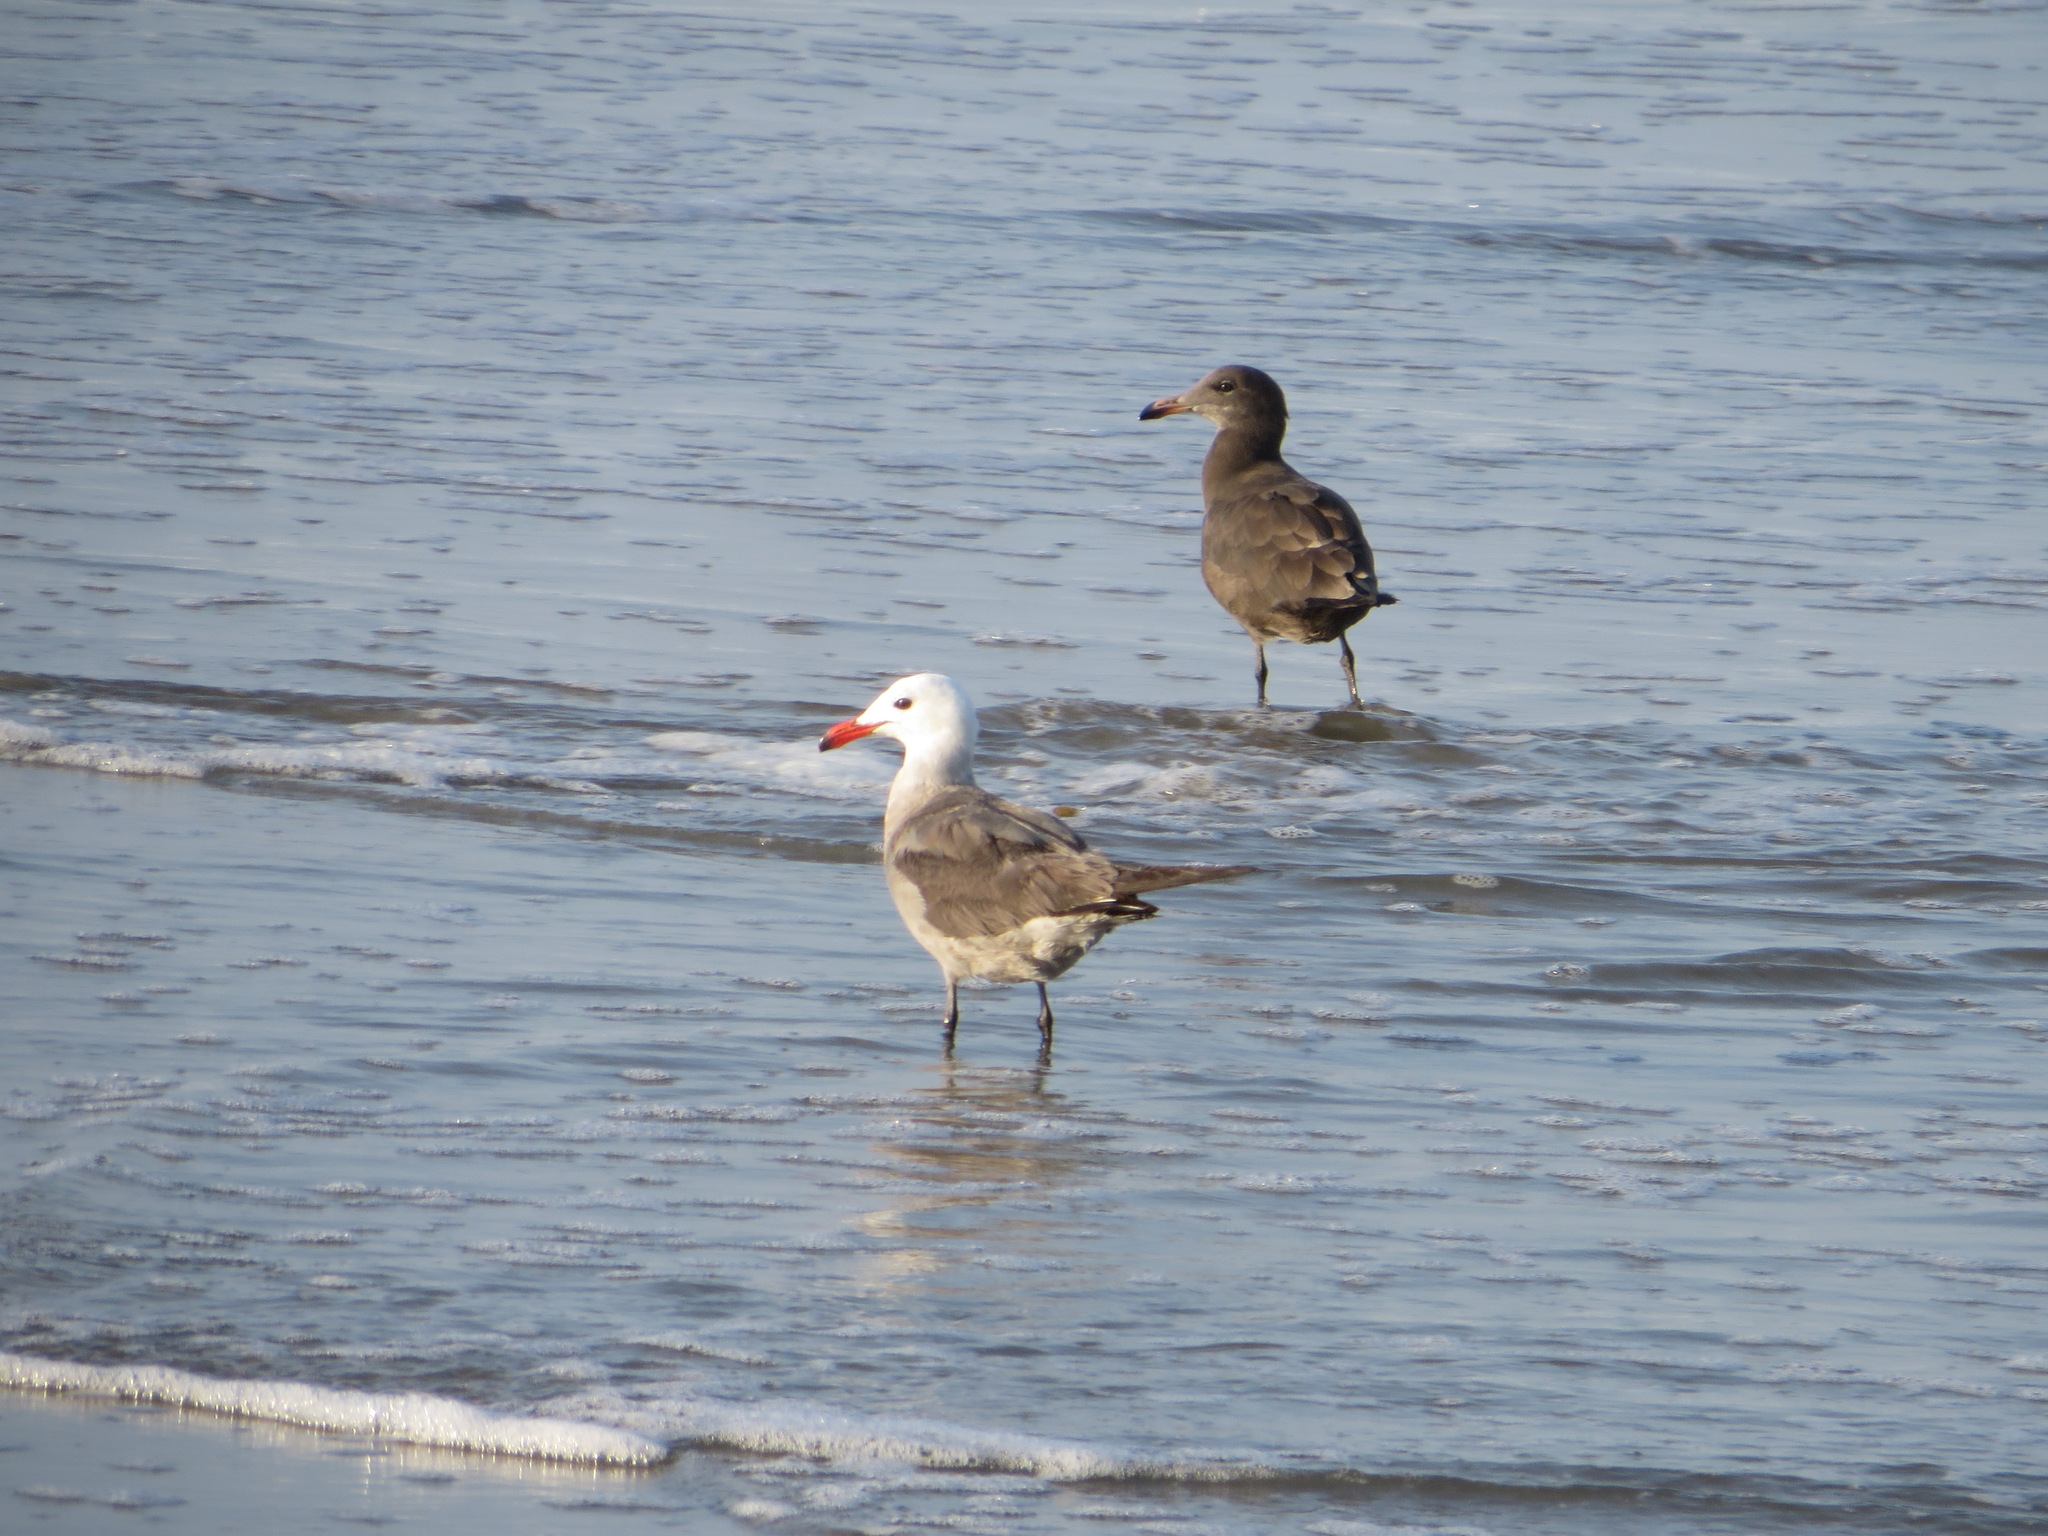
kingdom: Animalia
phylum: Chordata
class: Aves
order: Charadriiformes
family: Laridae
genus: Larus
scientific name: Larus heermanni
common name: Heermann's gull
